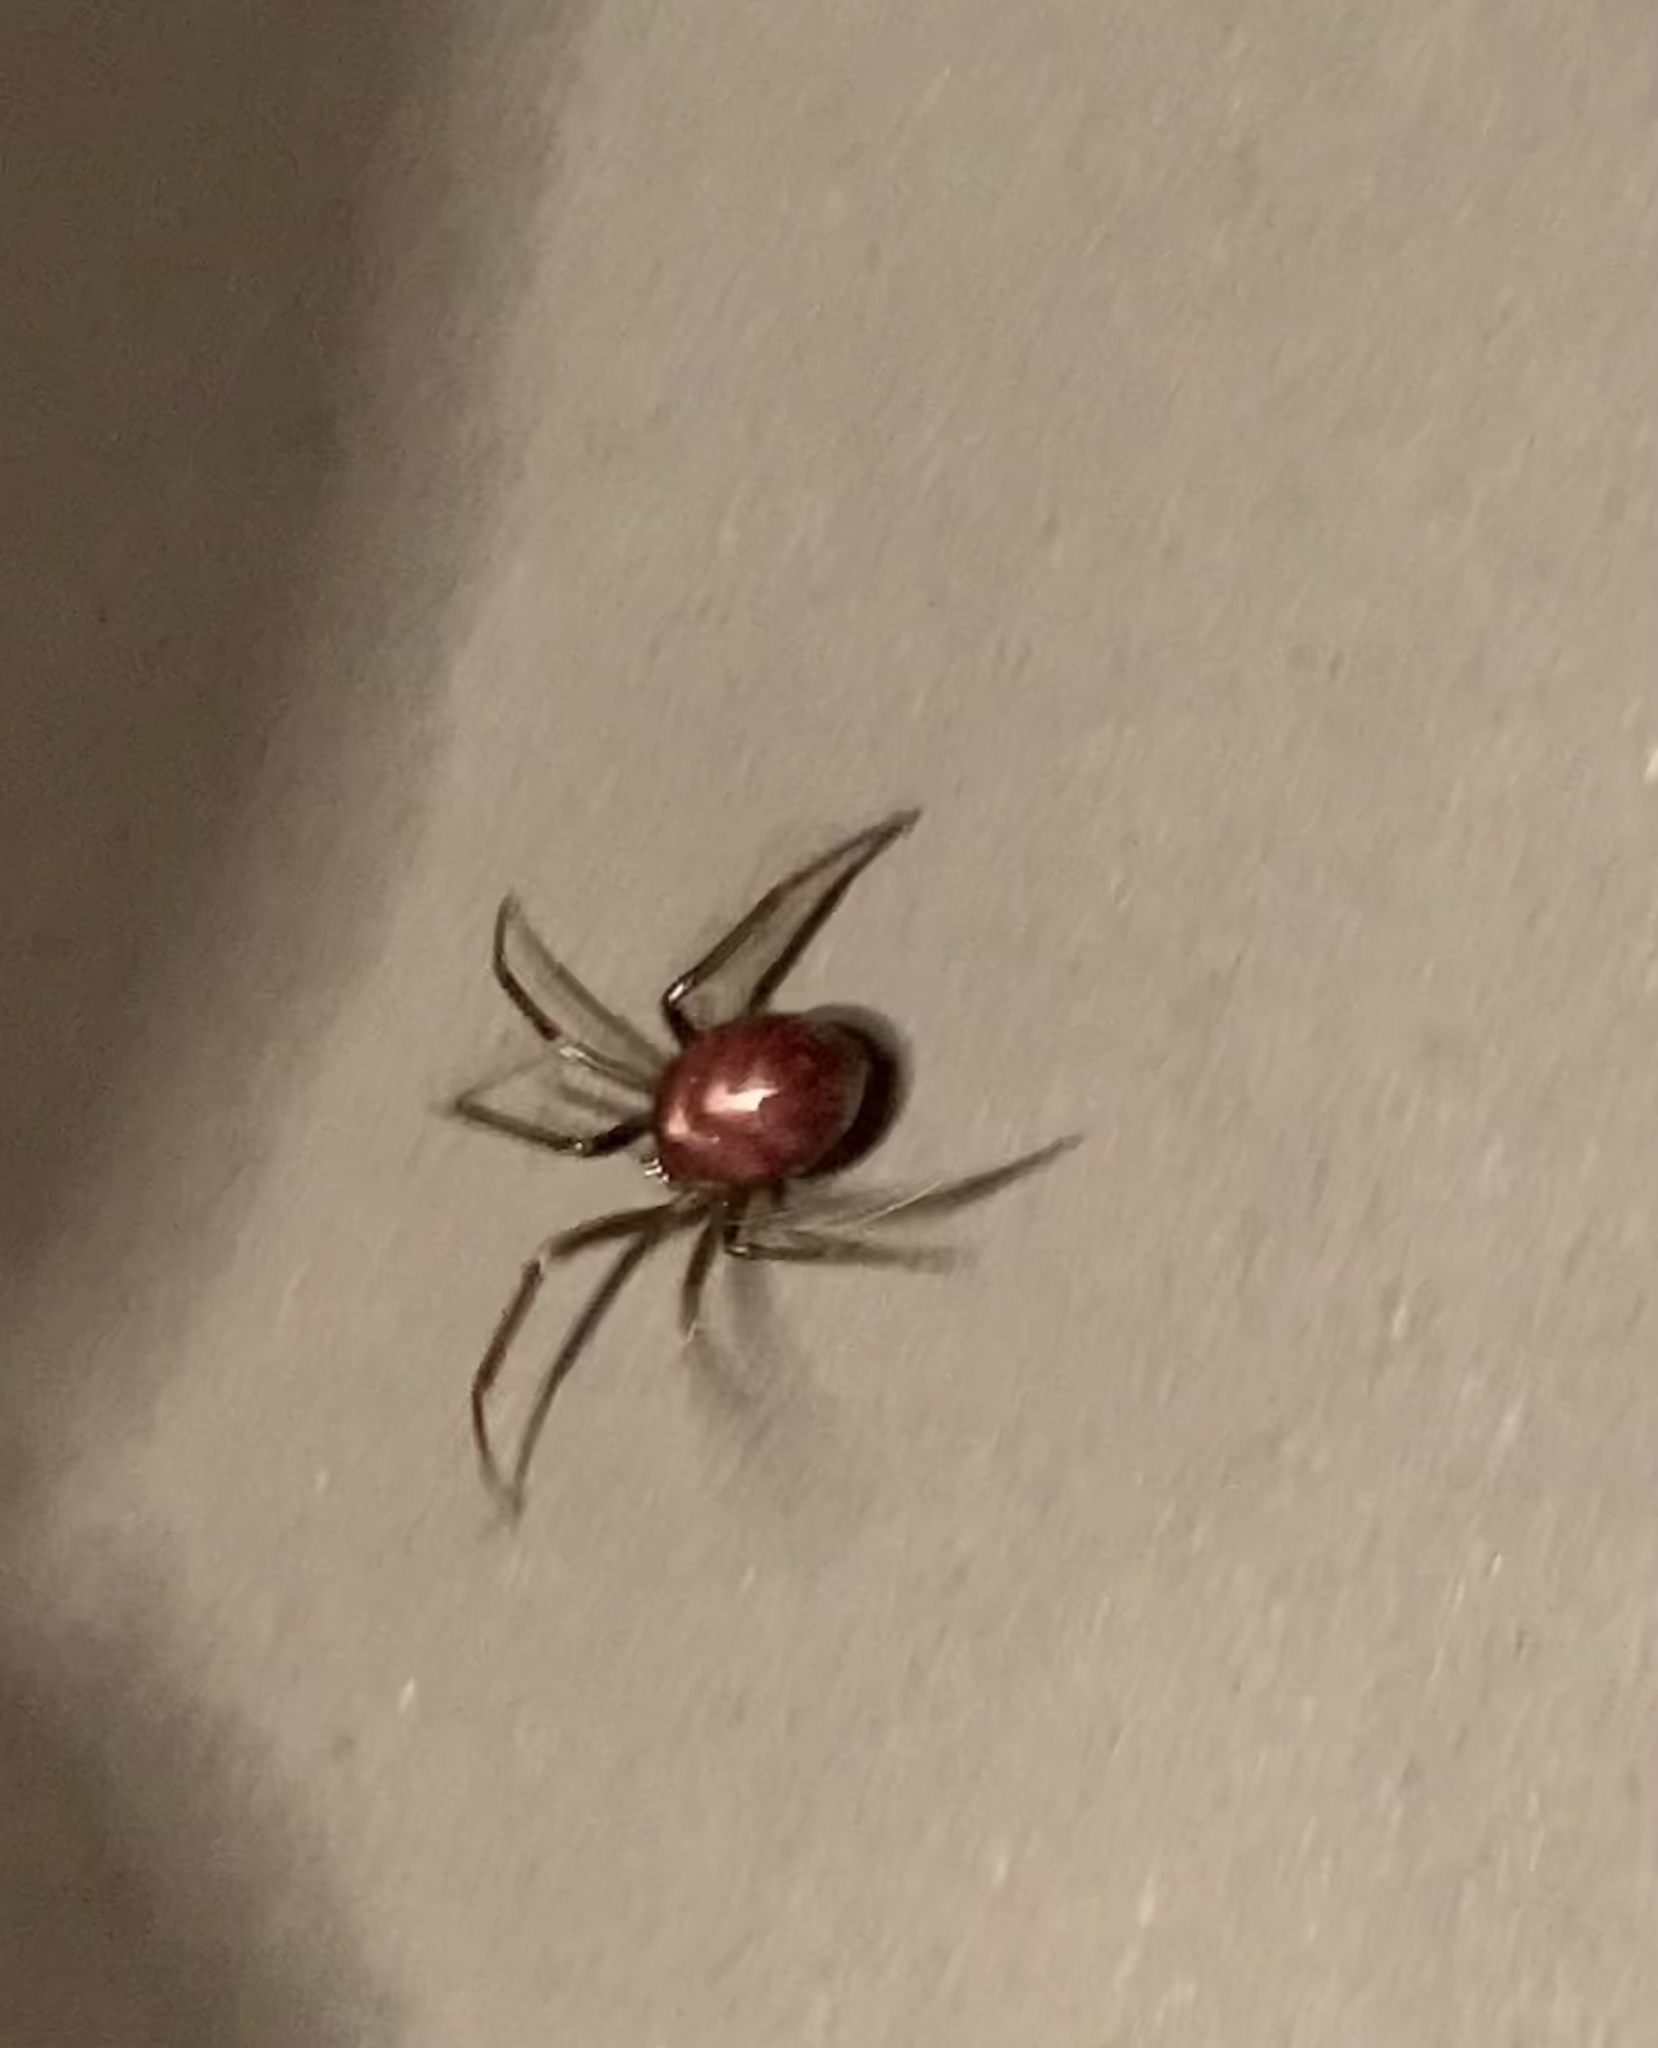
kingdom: Animalia
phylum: Arthropoda
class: Arachnida
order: Araneae
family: Theridiidae
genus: Steatoda
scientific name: Steatoda grossa
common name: False black widow
